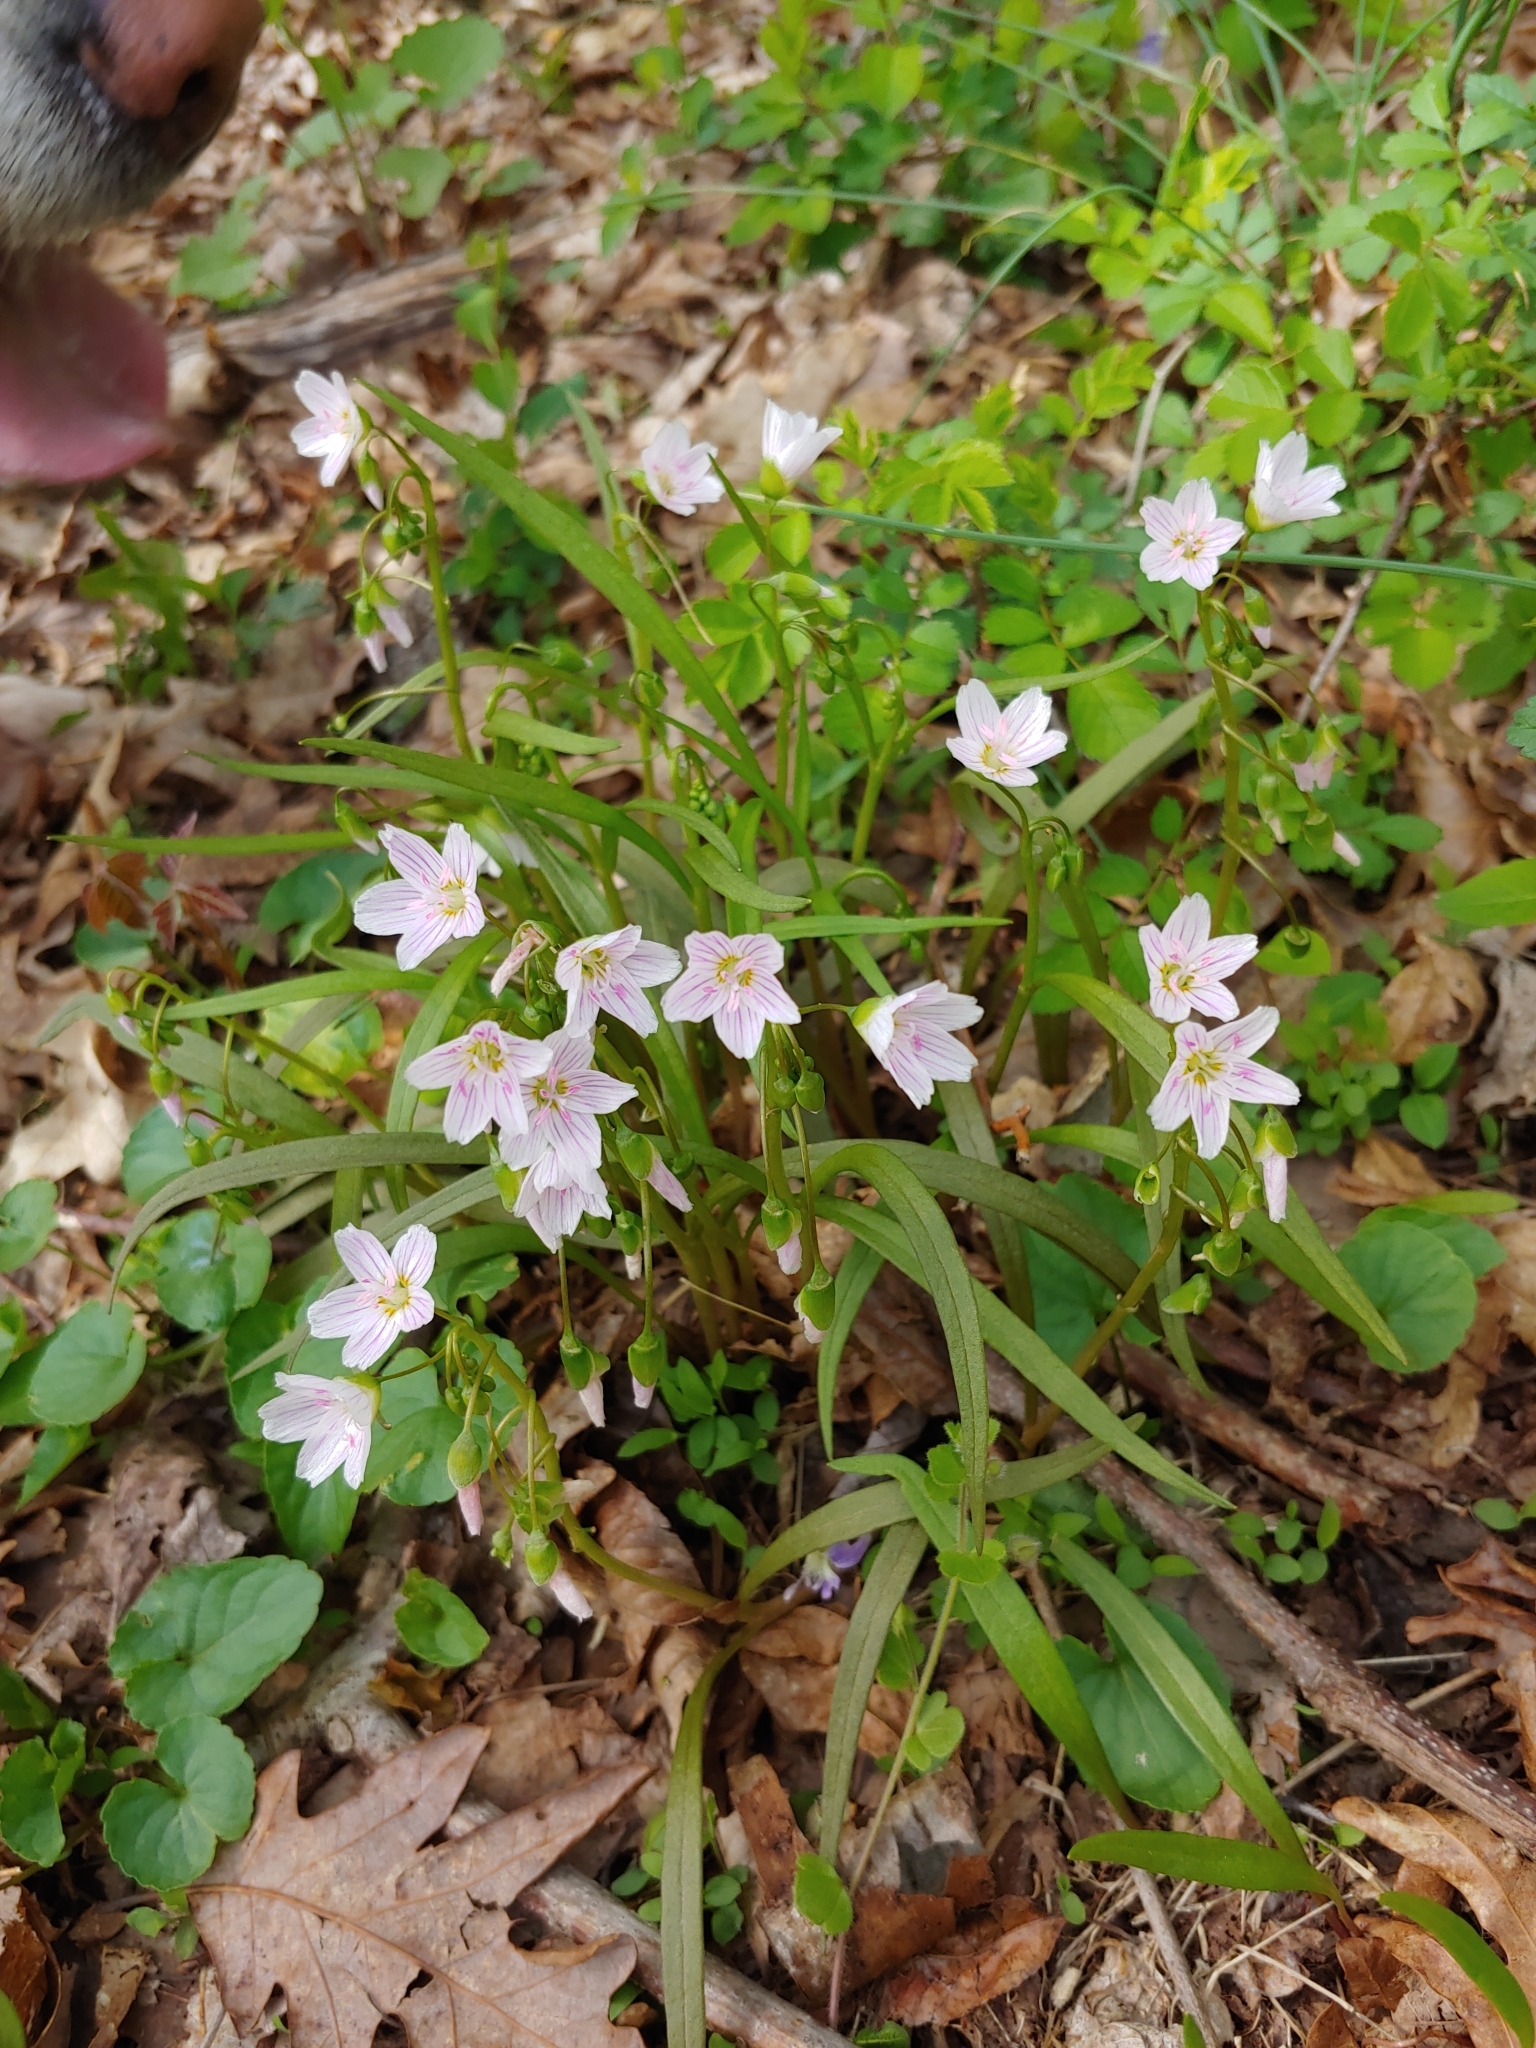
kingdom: Plantae
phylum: Tracheophyta
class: Magnoliopsida
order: Caryophyllales
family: Montiaceae
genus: Claytonia
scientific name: Claytonia virginica
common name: Virginia springbeauty
